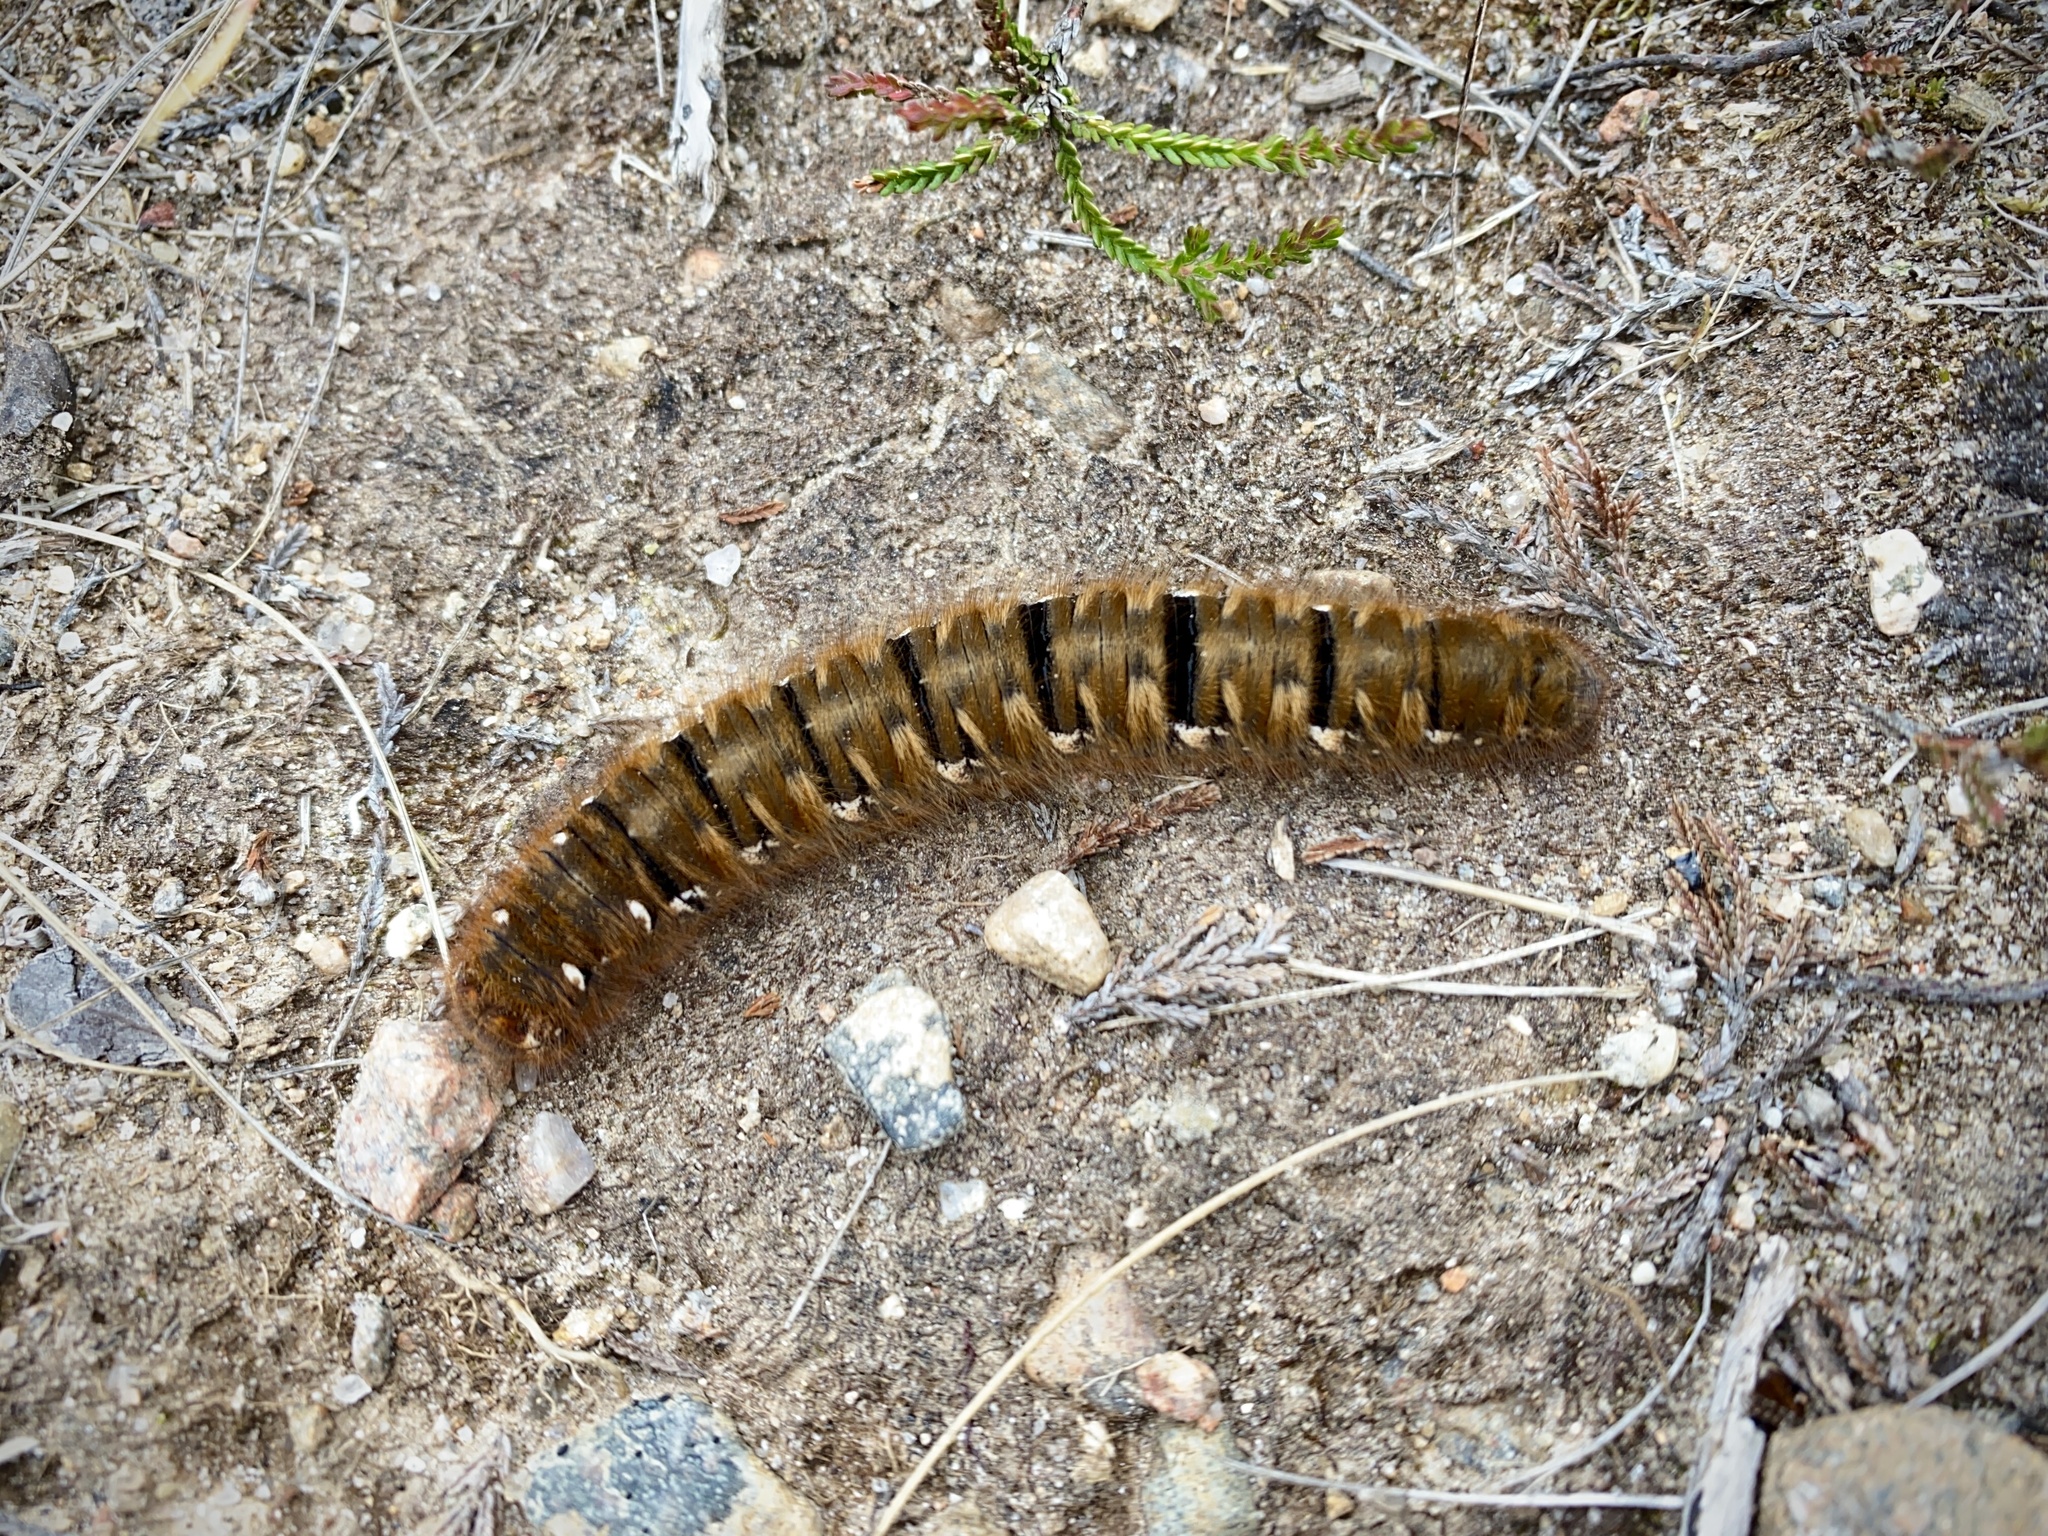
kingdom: Animalia
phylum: Arthropoda
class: Insecta
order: Lepidoptera
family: Lasiocampidae
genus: Lasiocampa
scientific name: Lasiocampa quercus
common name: Oak eggar
